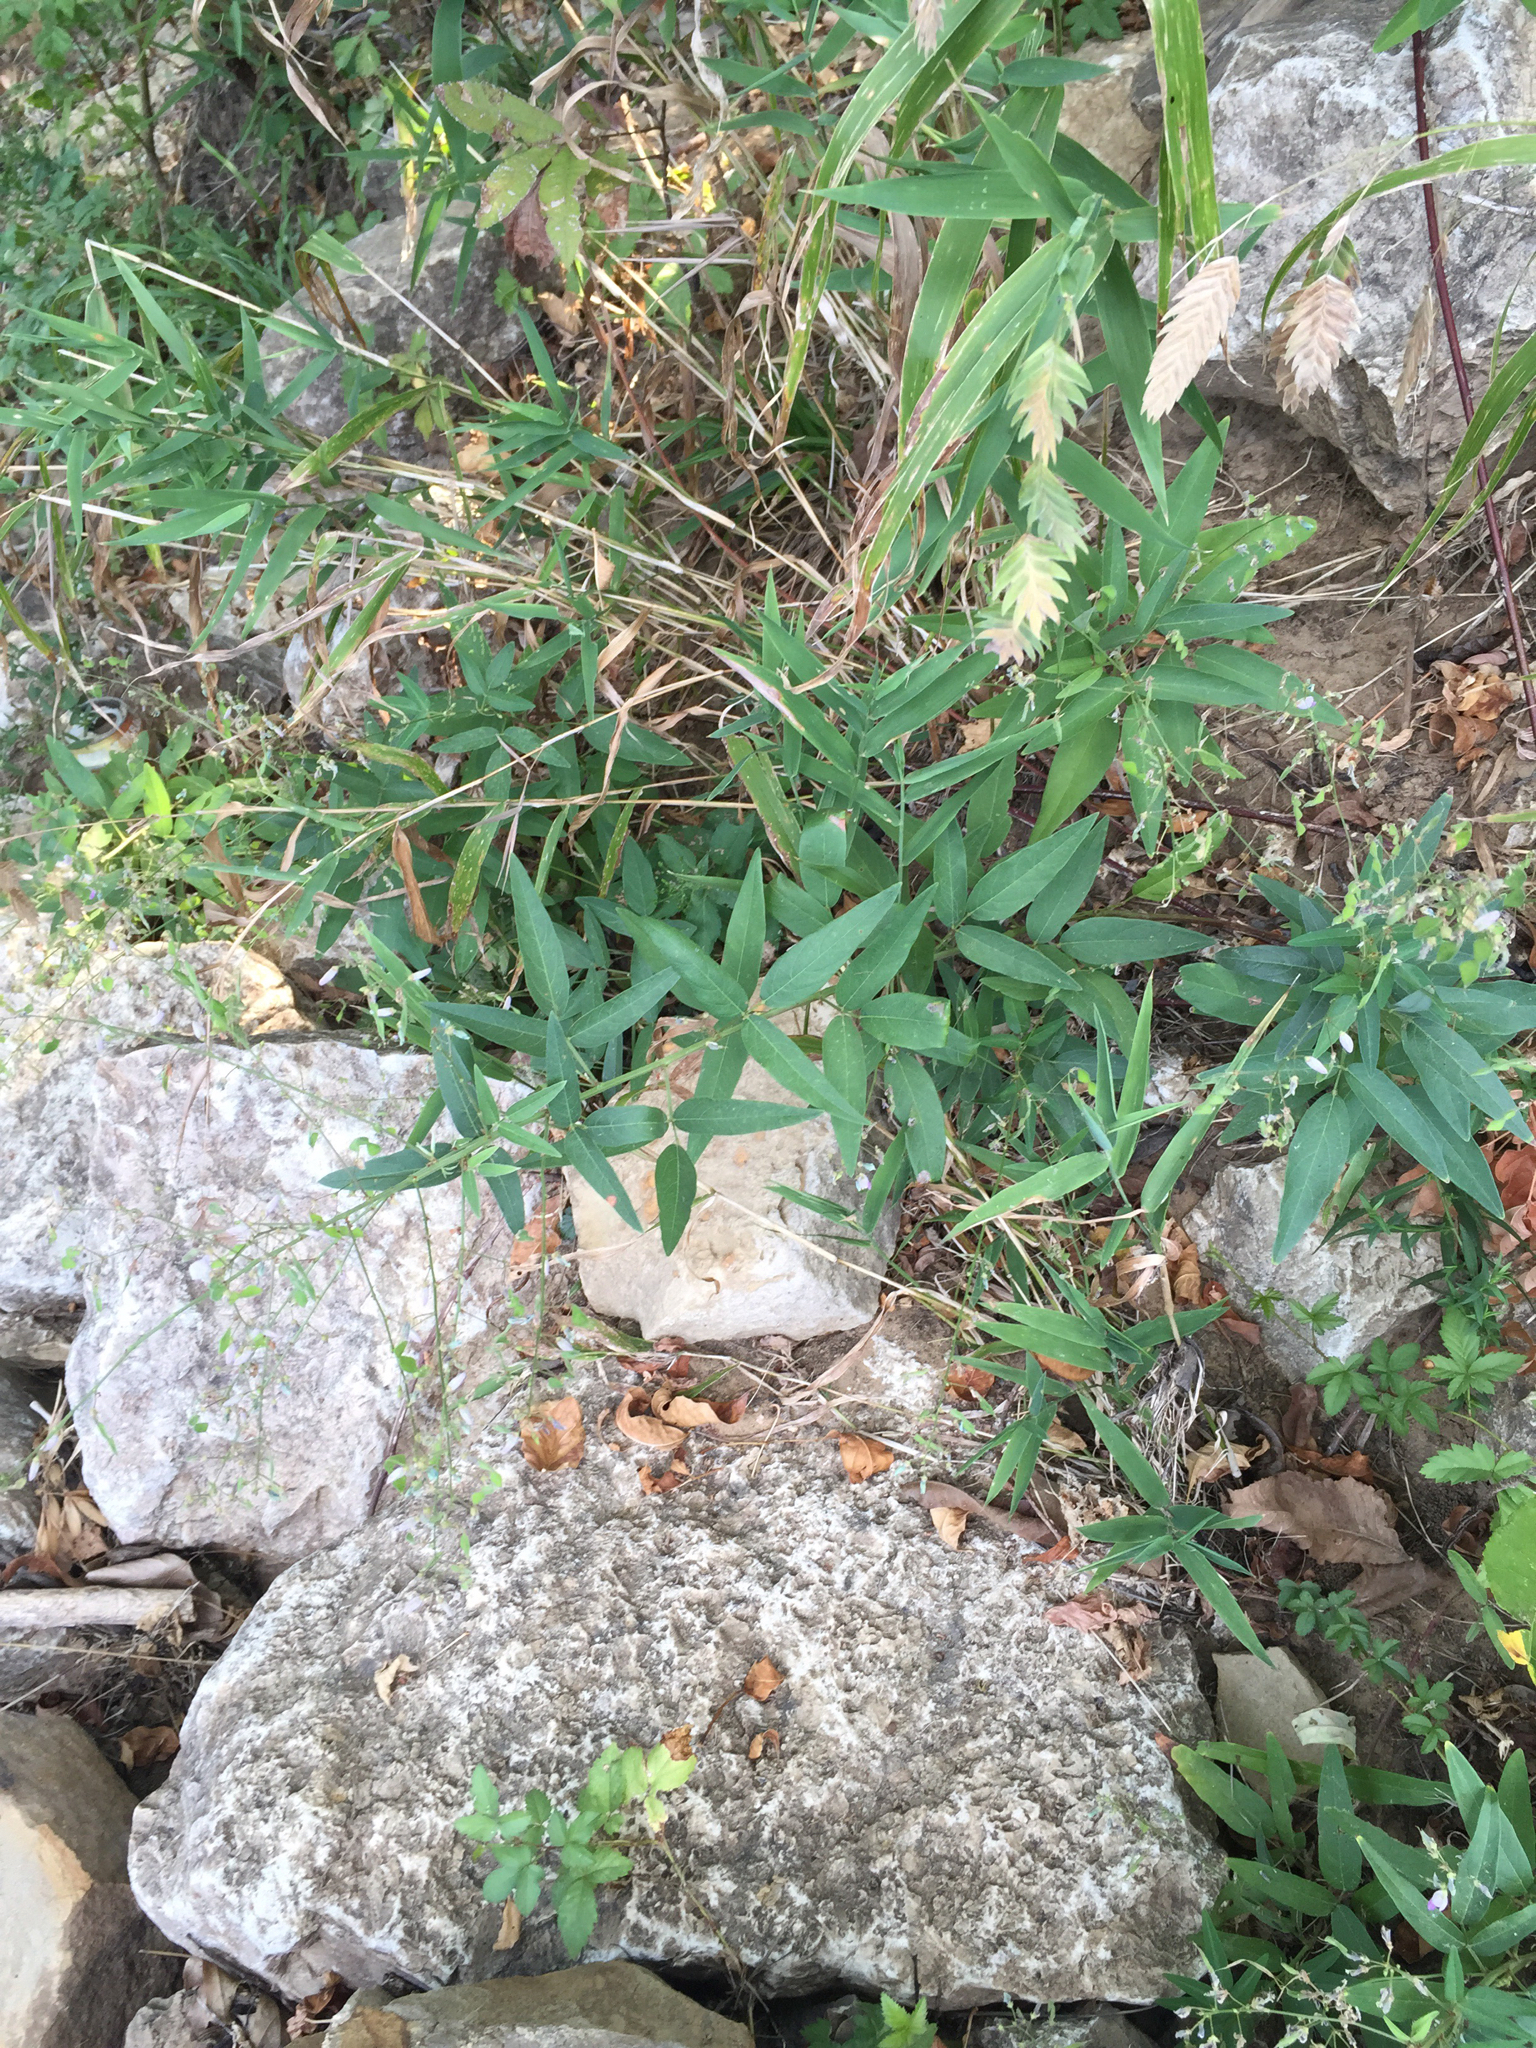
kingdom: Plantae
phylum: Tracheophyta
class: Magnoliopsida
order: Fabales
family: Fabaceae
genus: Desmodium
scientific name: Desmodium paniculatum
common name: Panicled tick-clover
